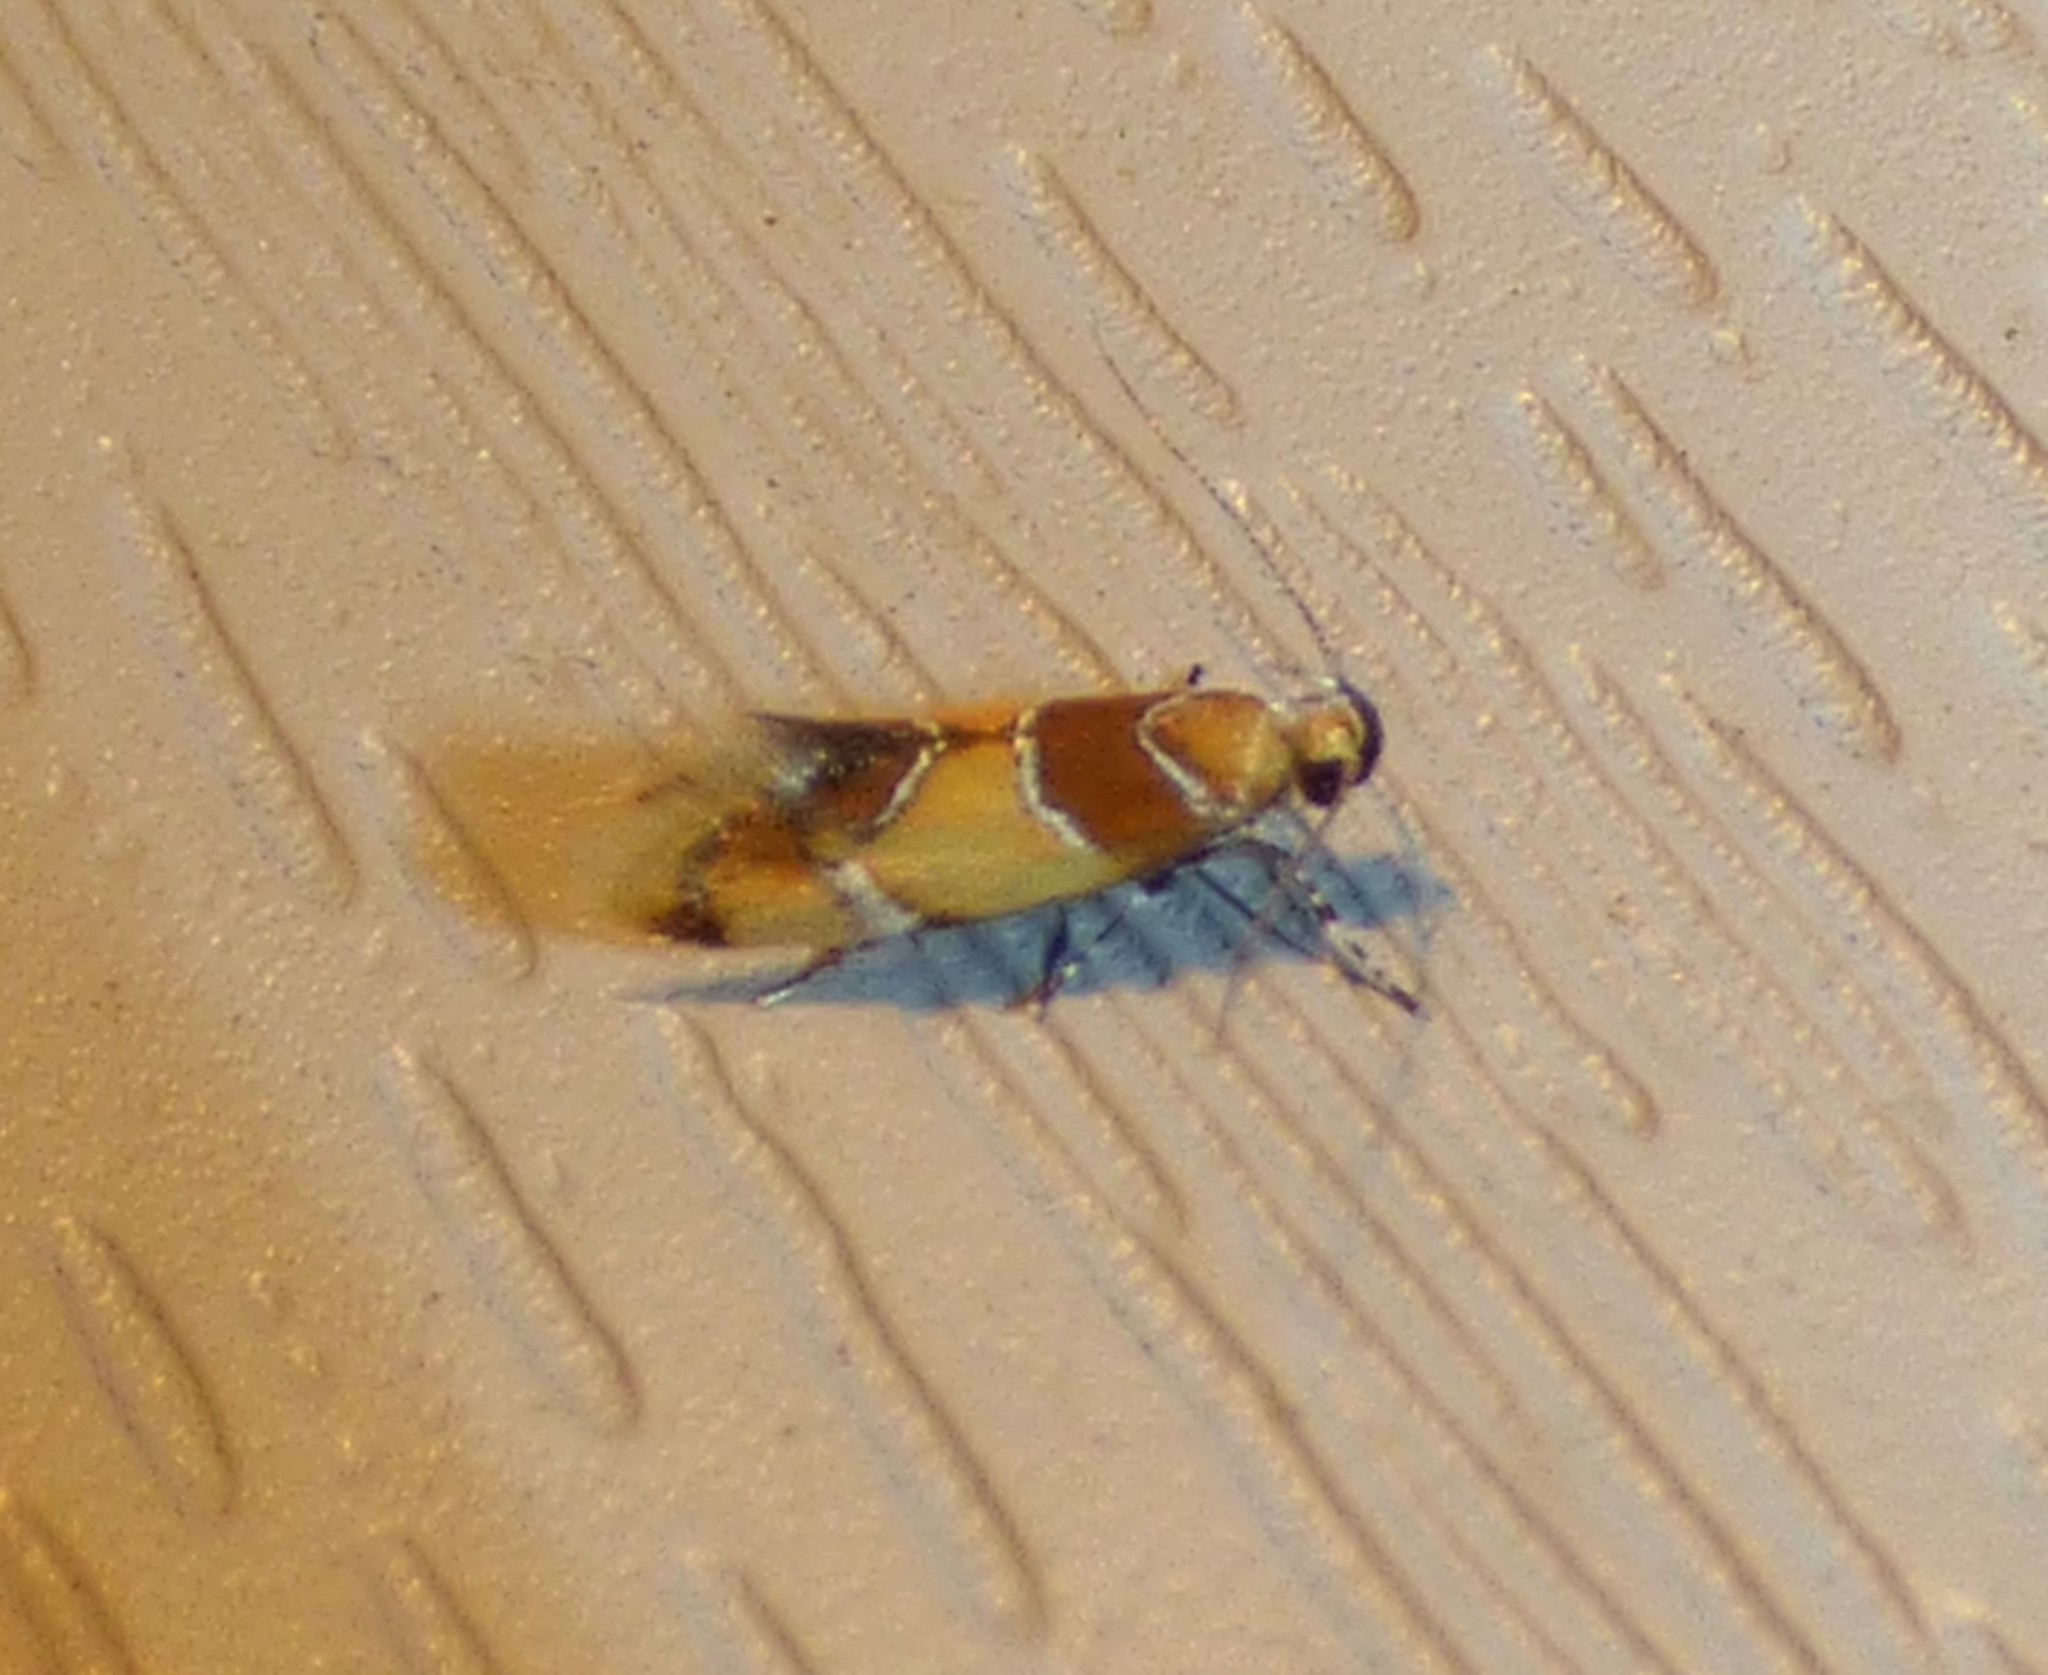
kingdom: Animalia
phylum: Arthropoda
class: Insecta
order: Lepidoptera
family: Oecophoridae
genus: Callima
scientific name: Callima argenticinctella
